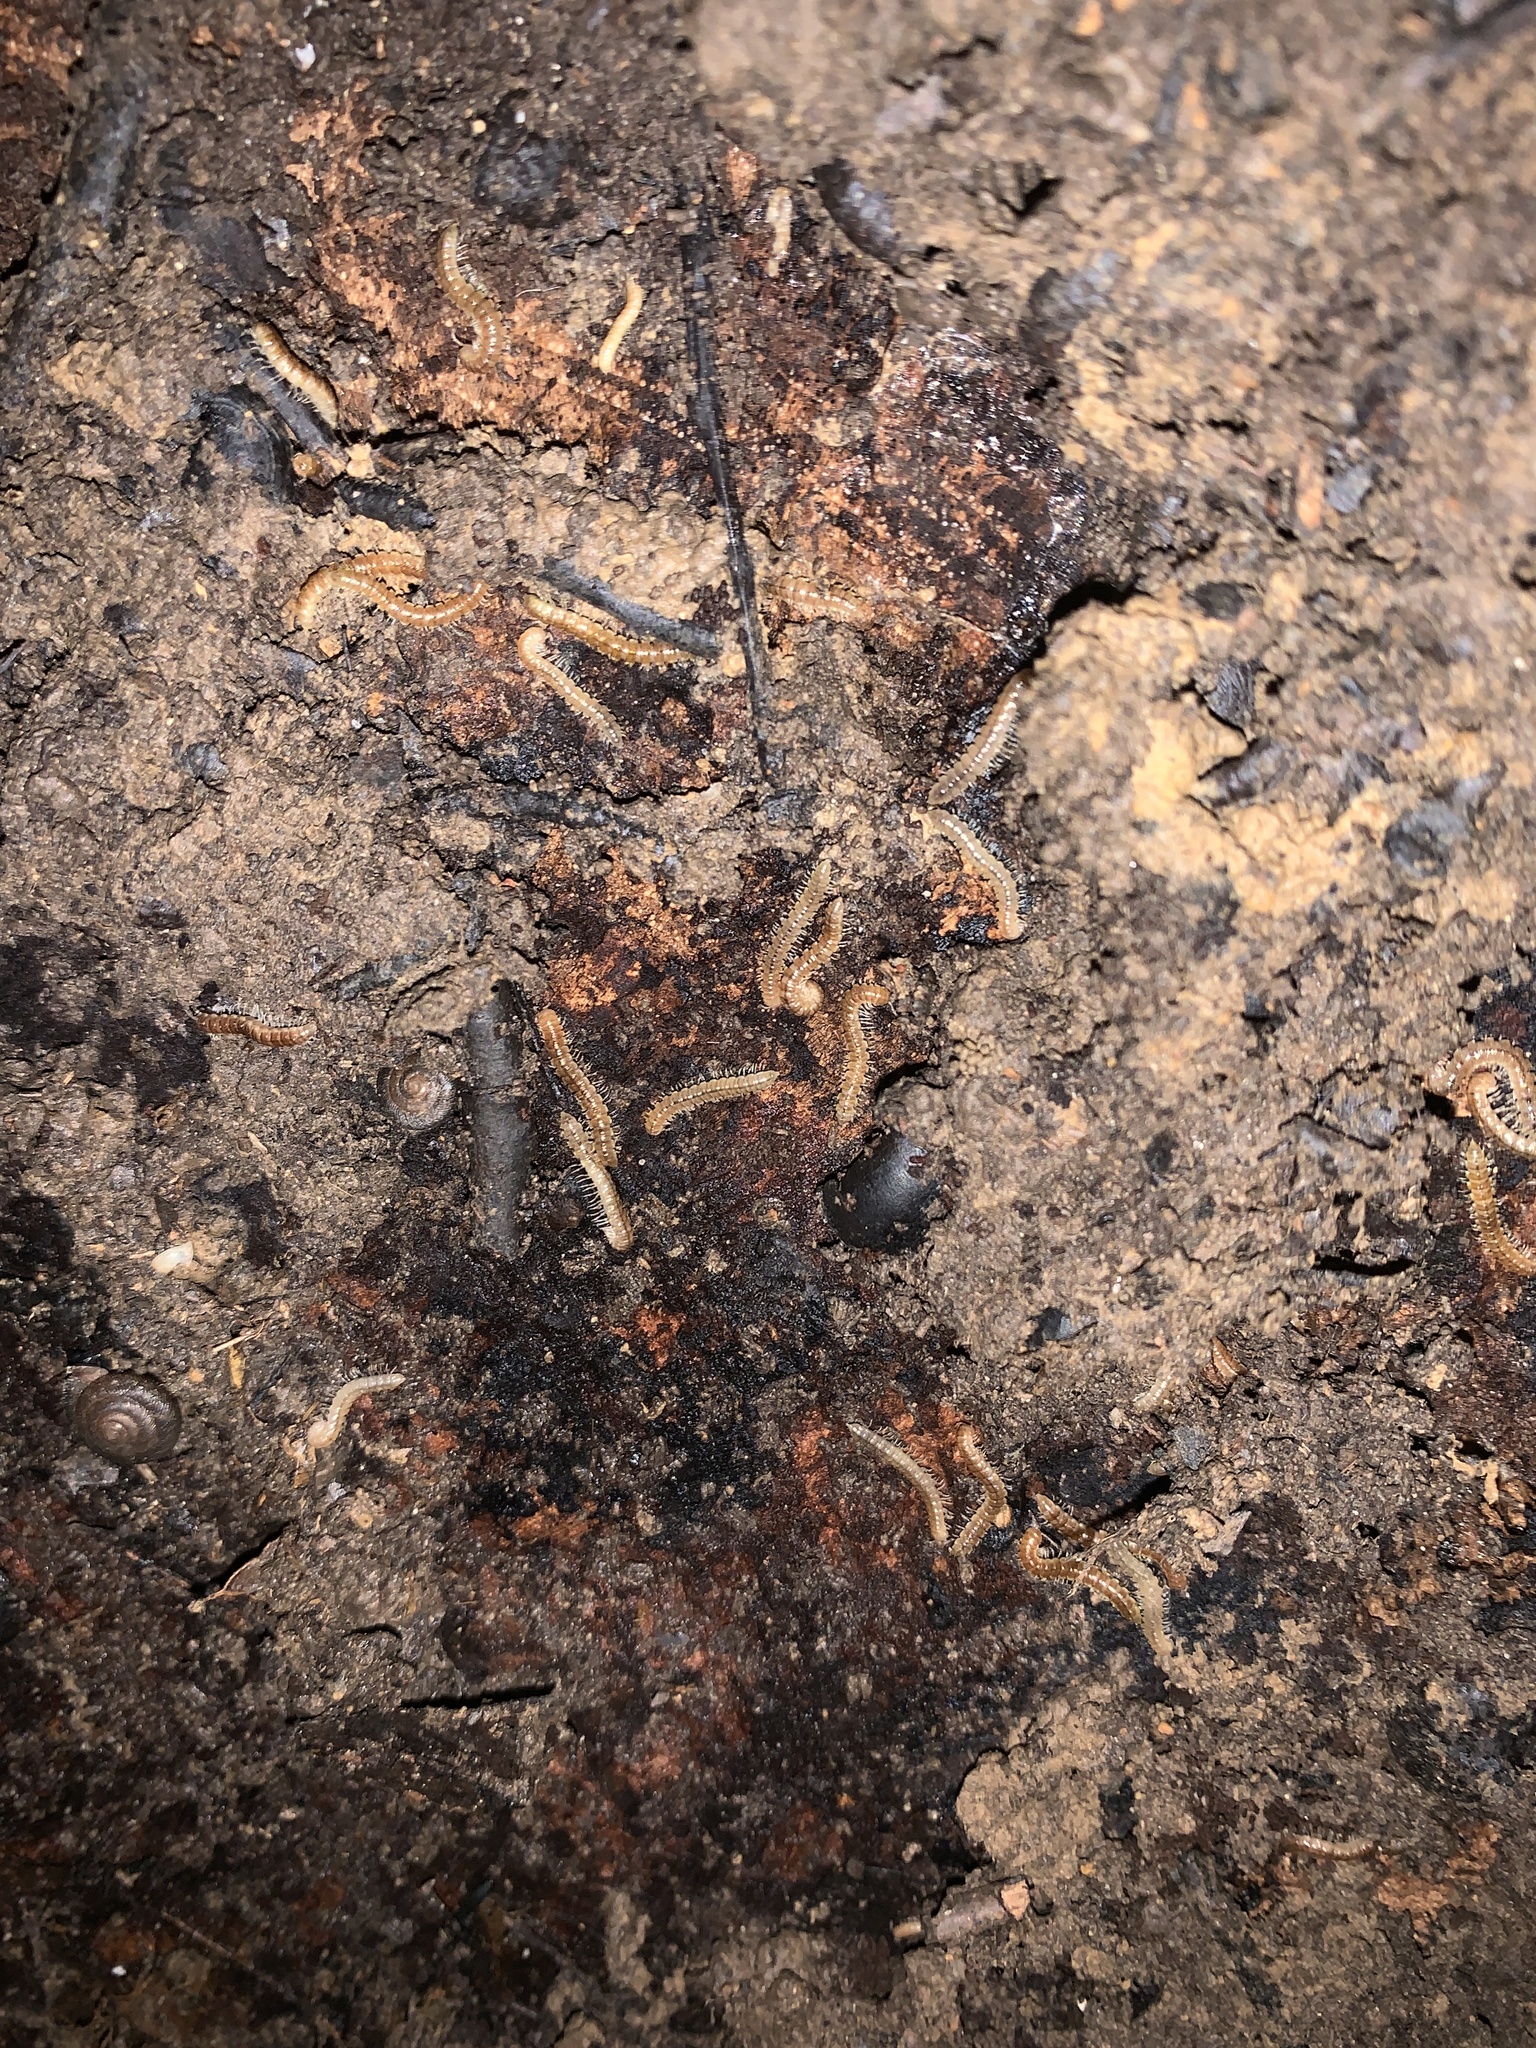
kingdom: Animalia
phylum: Arthropoda
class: Diplopoda
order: Polydesmida
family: Paradoxosomatidae
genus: Oxidus
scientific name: Oxidus gracilis
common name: Greenhouse millipede
